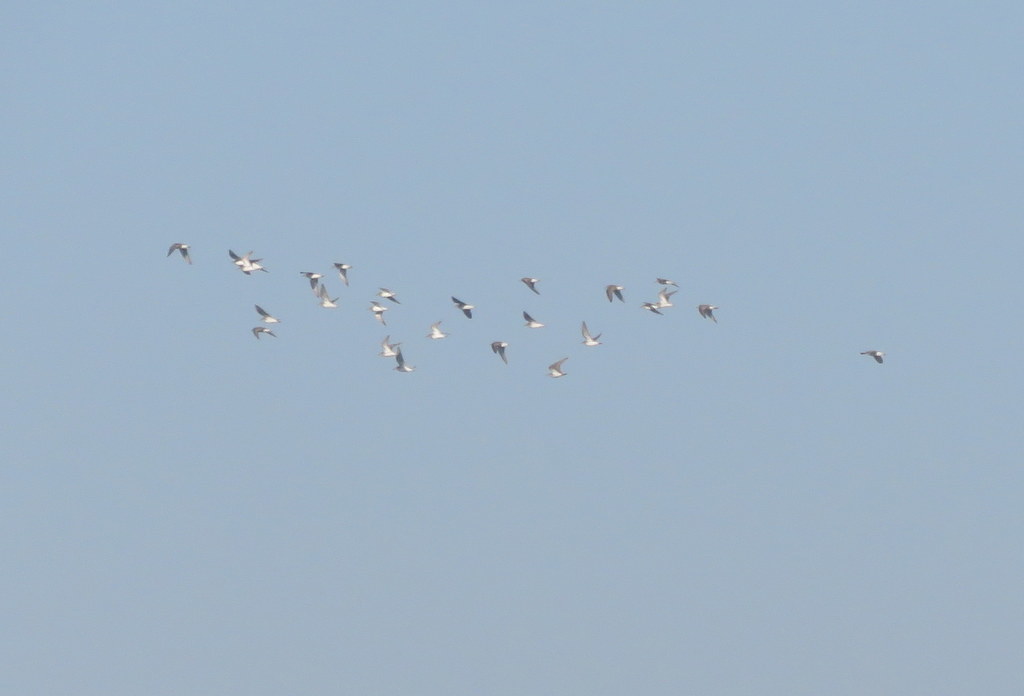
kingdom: Animalia
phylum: Chordata
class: Aves
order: Charadriiformes
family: Scolopacidae
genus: Calidris
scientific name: Calidris fuscicollis
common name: White-rumped sandpiper
